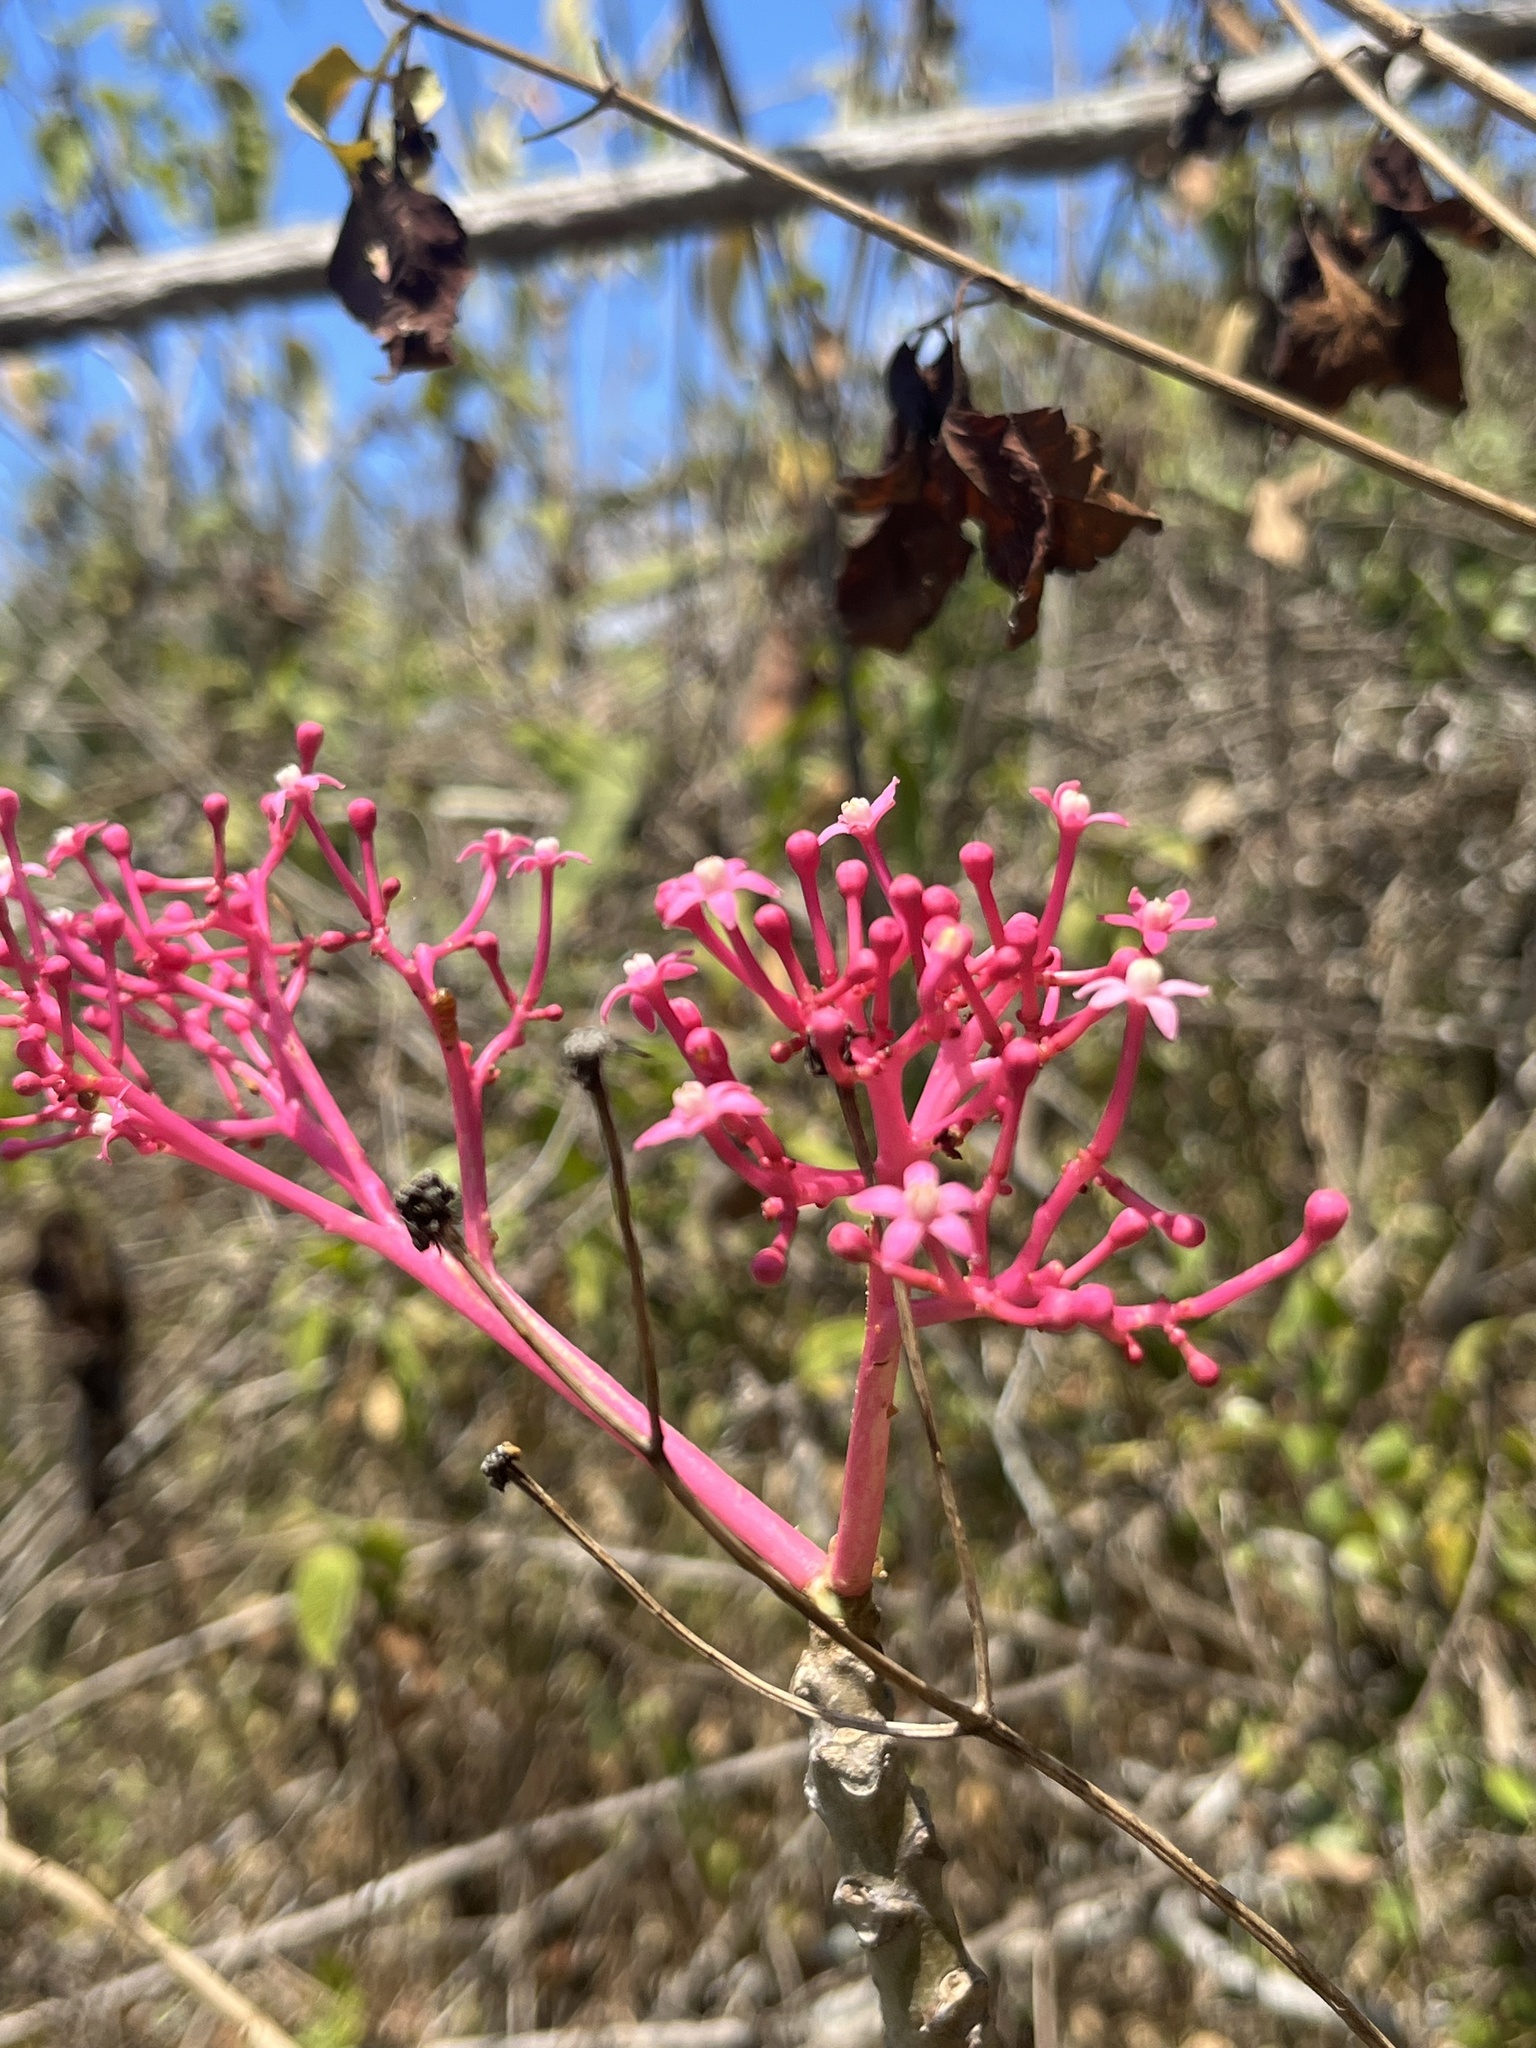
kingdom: Plantae
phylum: Tracheophyta
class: Magnoliopsida
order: Brassicales
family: Caricaceae
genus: Vasconcellea
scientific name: Vasconcellea parviflora
